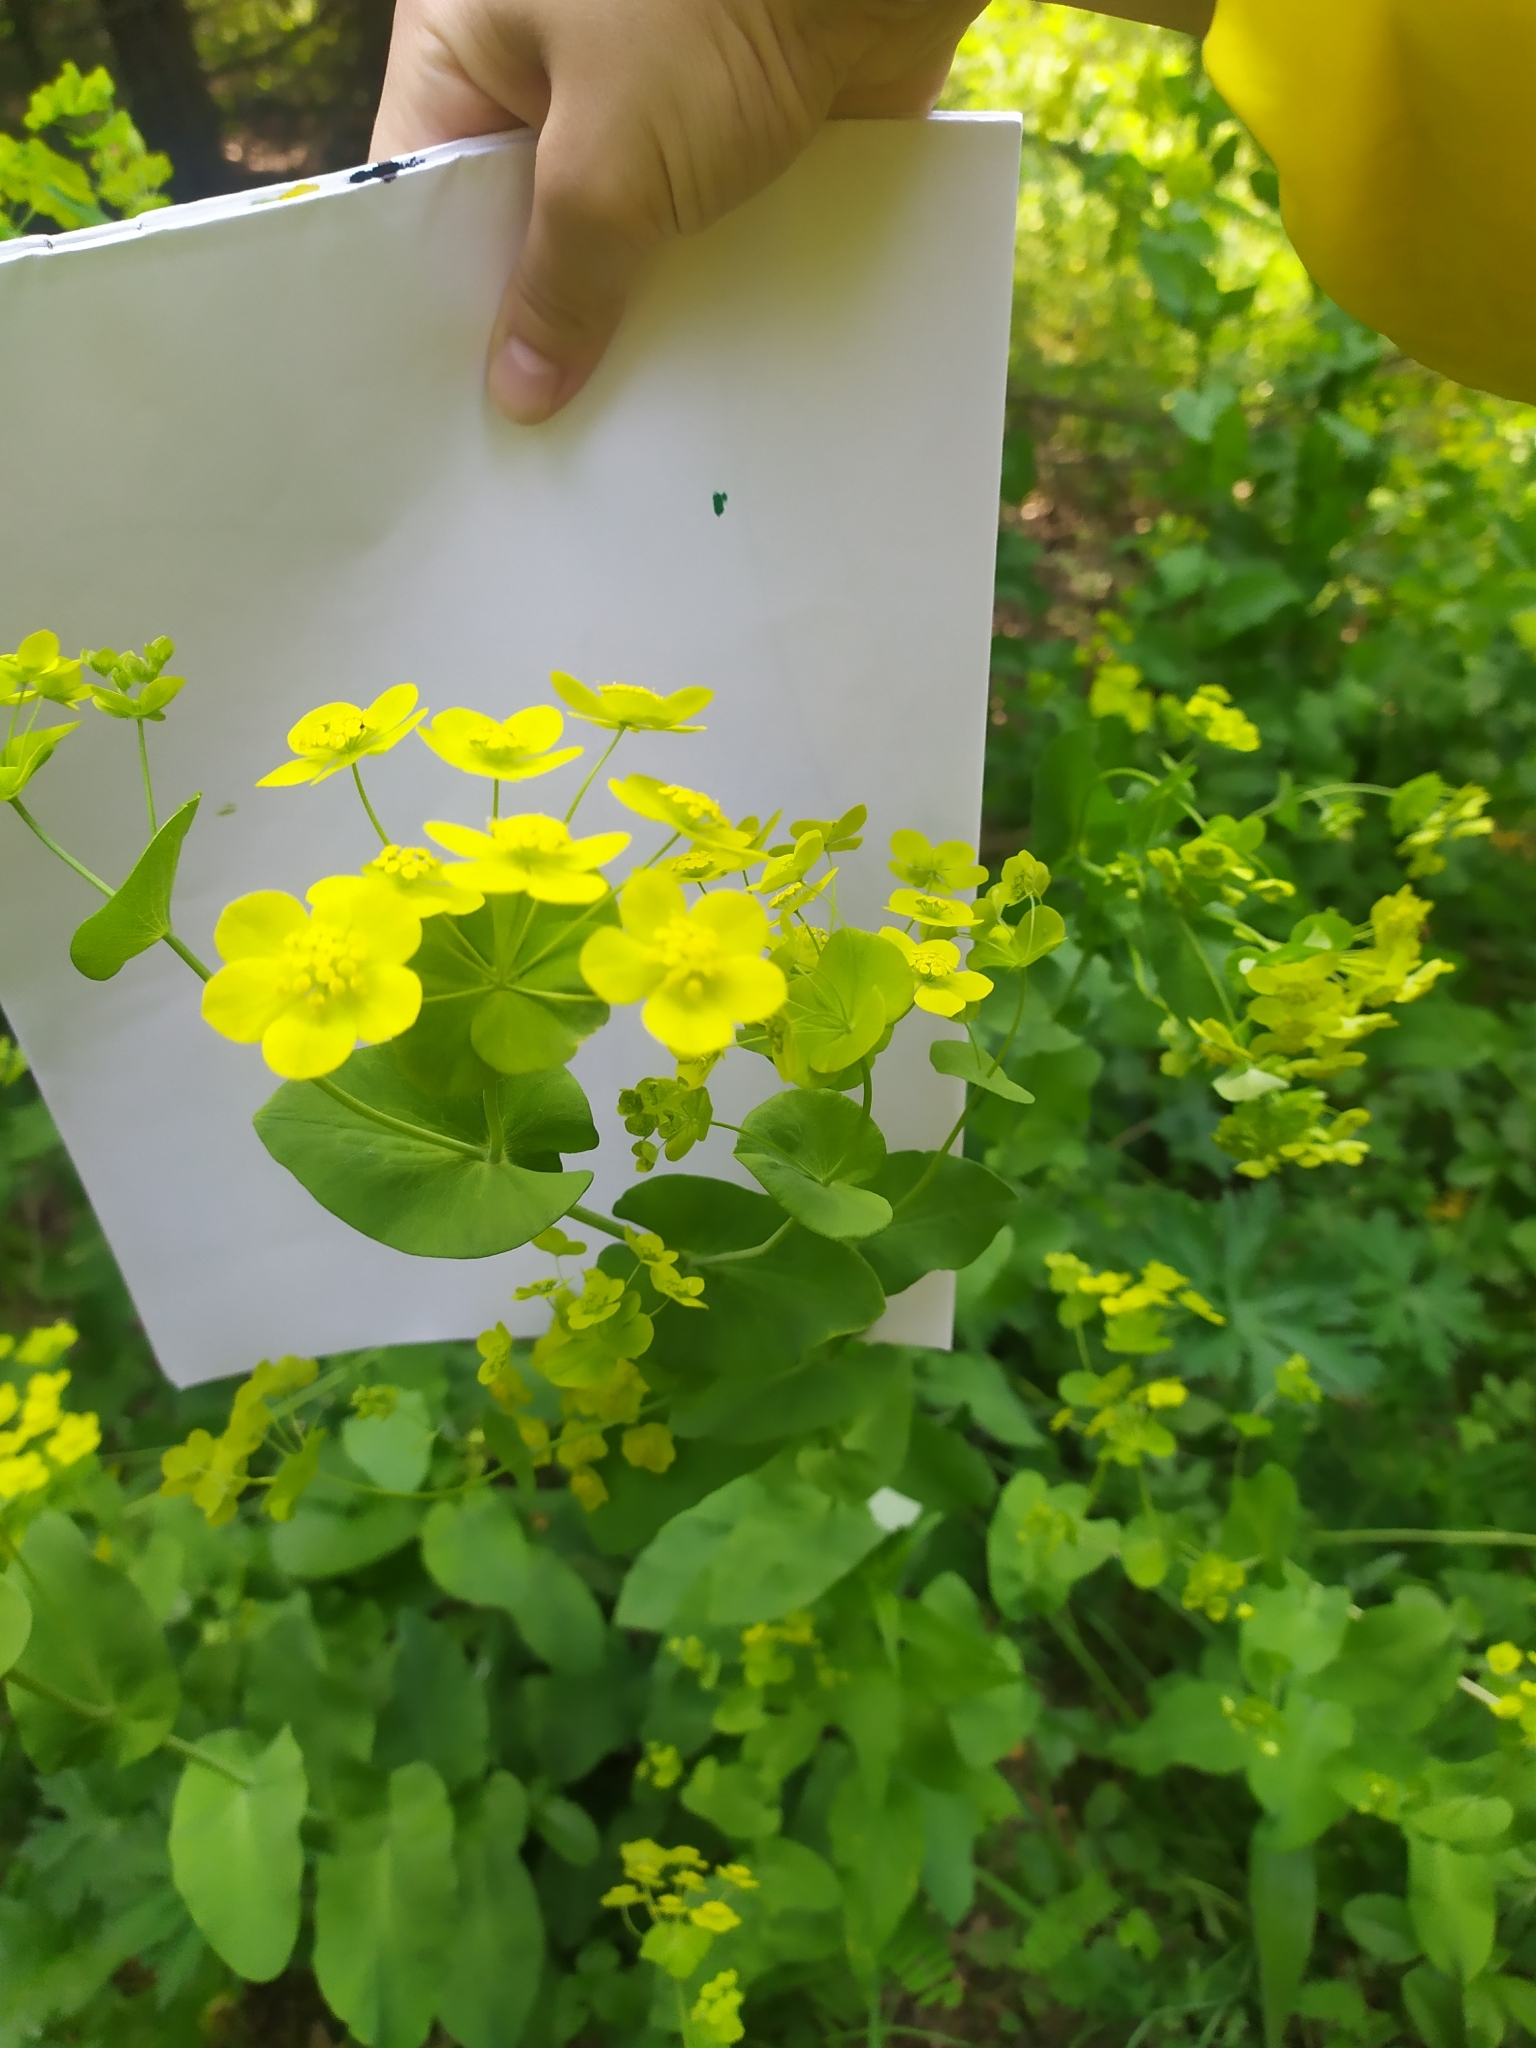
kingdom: Plantae
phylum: Tracheophyta
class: Magnoliopsida
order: Apiales
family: Apiaceae
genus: Bupleurum
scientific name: Bupleurum aureum
